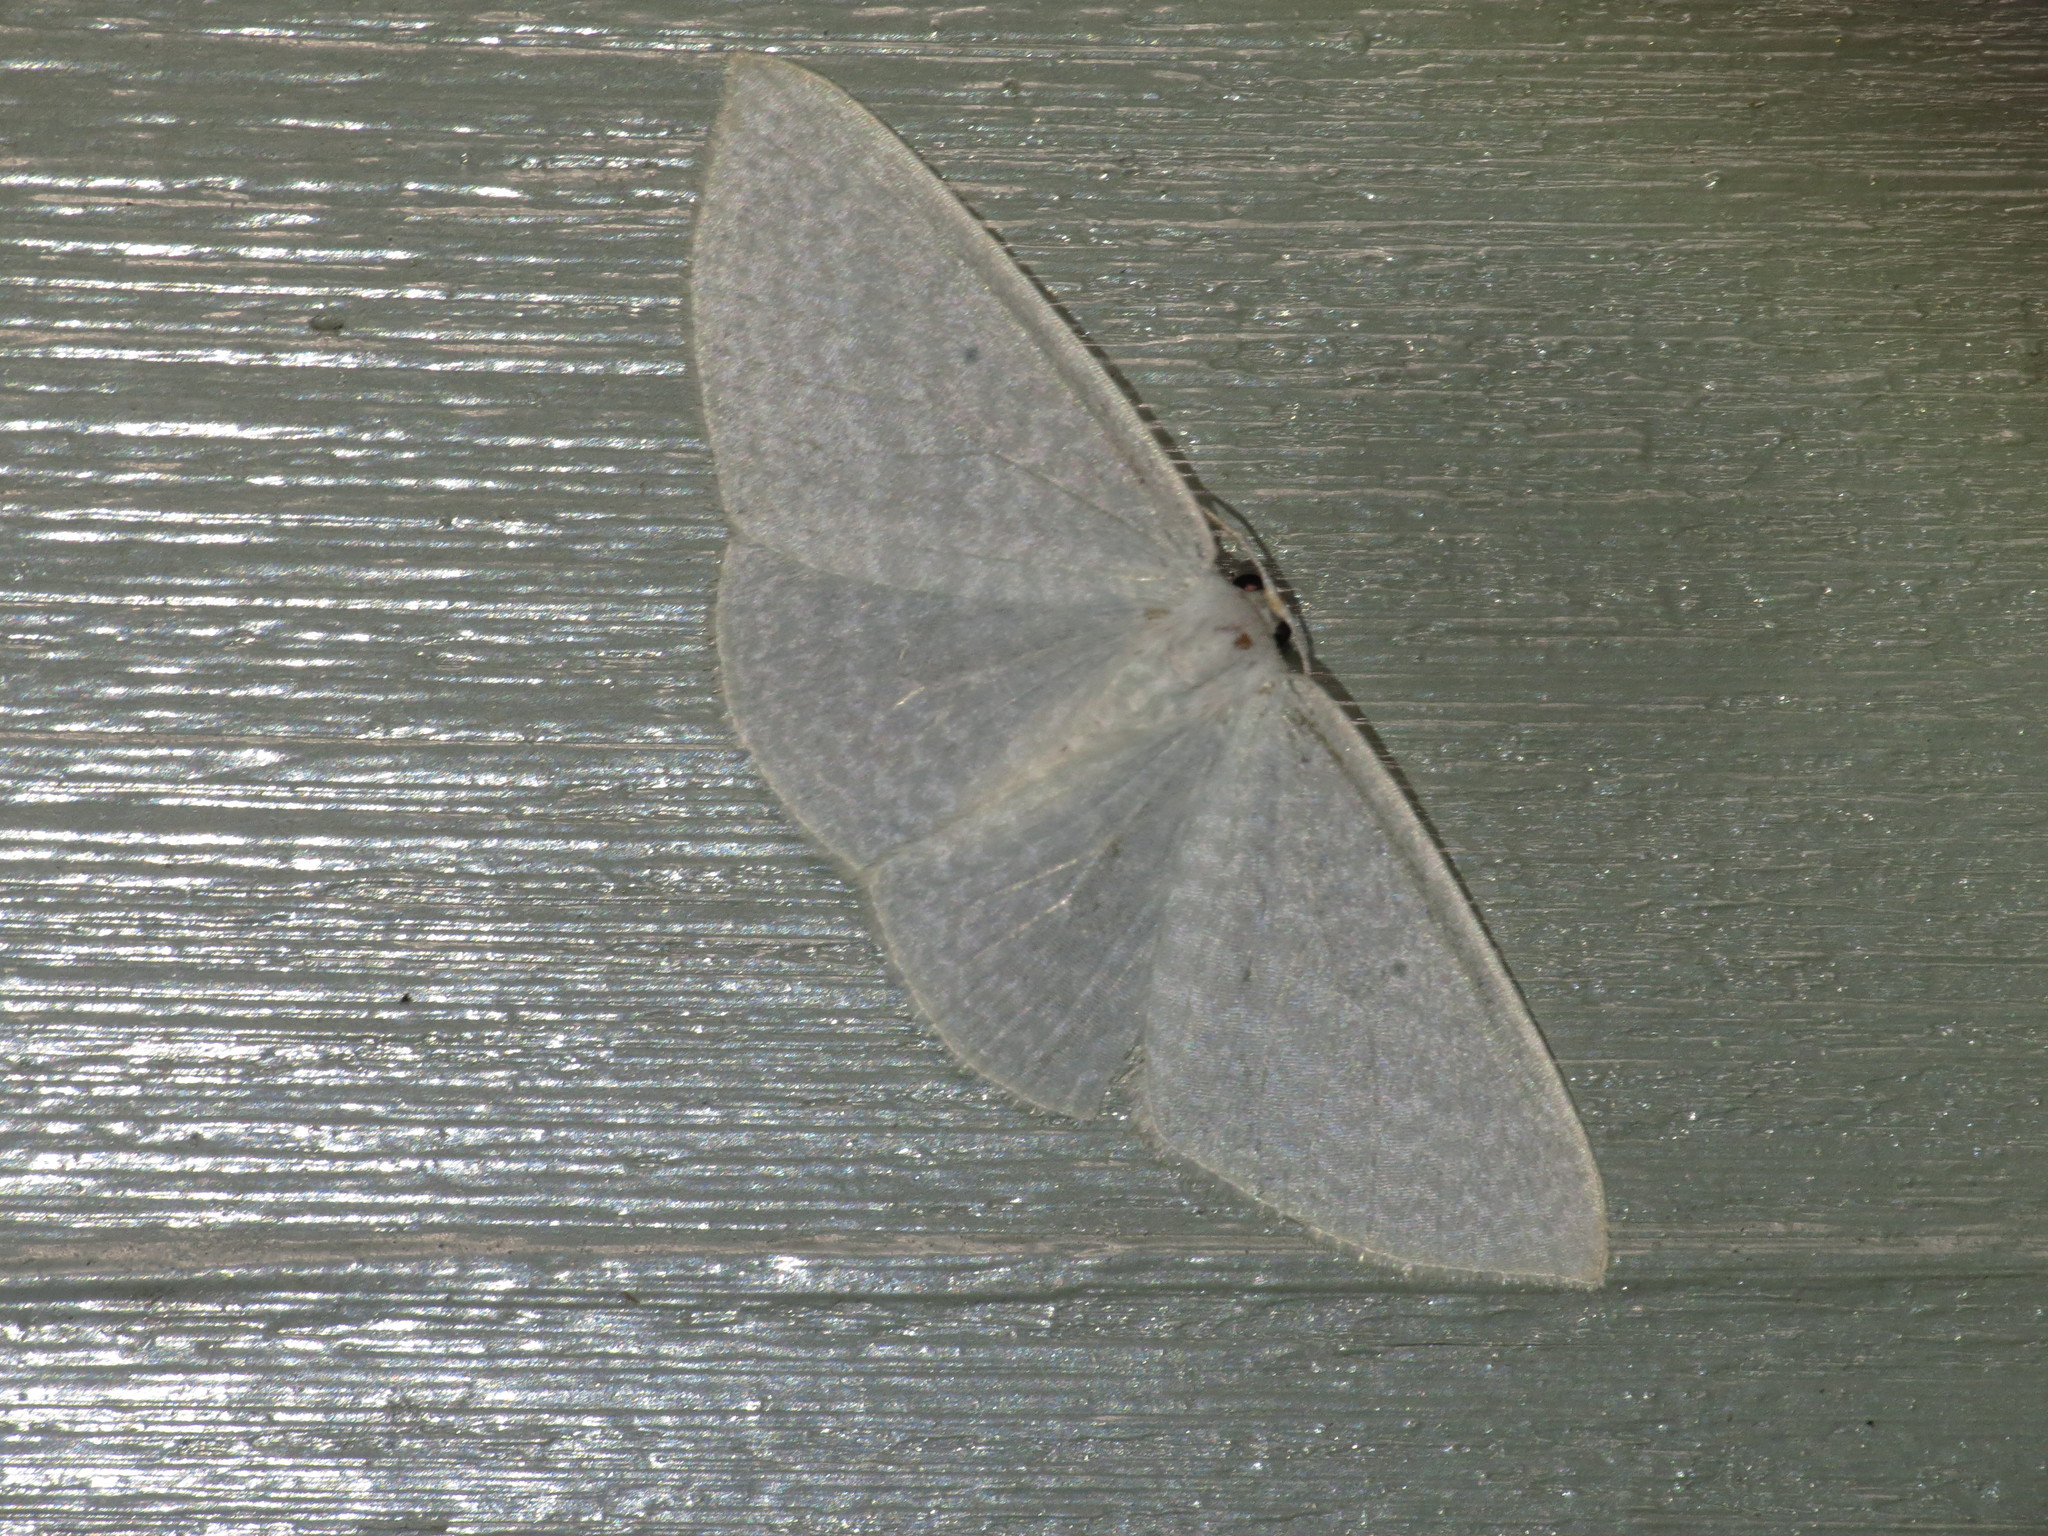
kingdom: Animalia
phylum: Arthropoda
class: Insecta
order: Lepidoptera
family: Geometridae
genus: Poecilasthena
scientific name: Poecilasthena pulchraria
